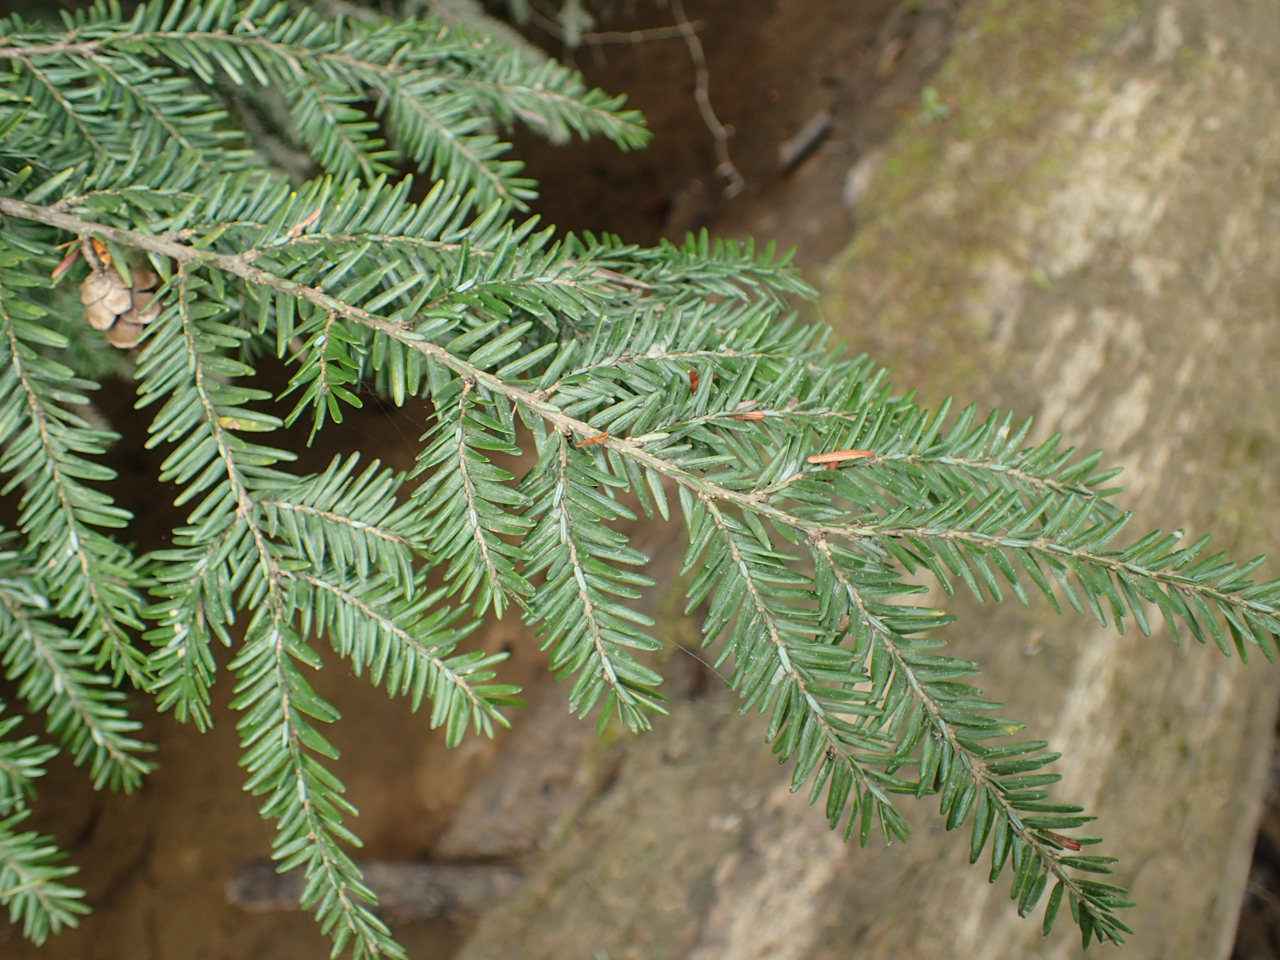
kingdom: Plantae
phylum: Tracheophyta
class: Pinopsida
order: Pinales
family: Pinaceae
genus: Tsuga
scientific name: Tsuga canadensis
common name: Eastern hemlock
